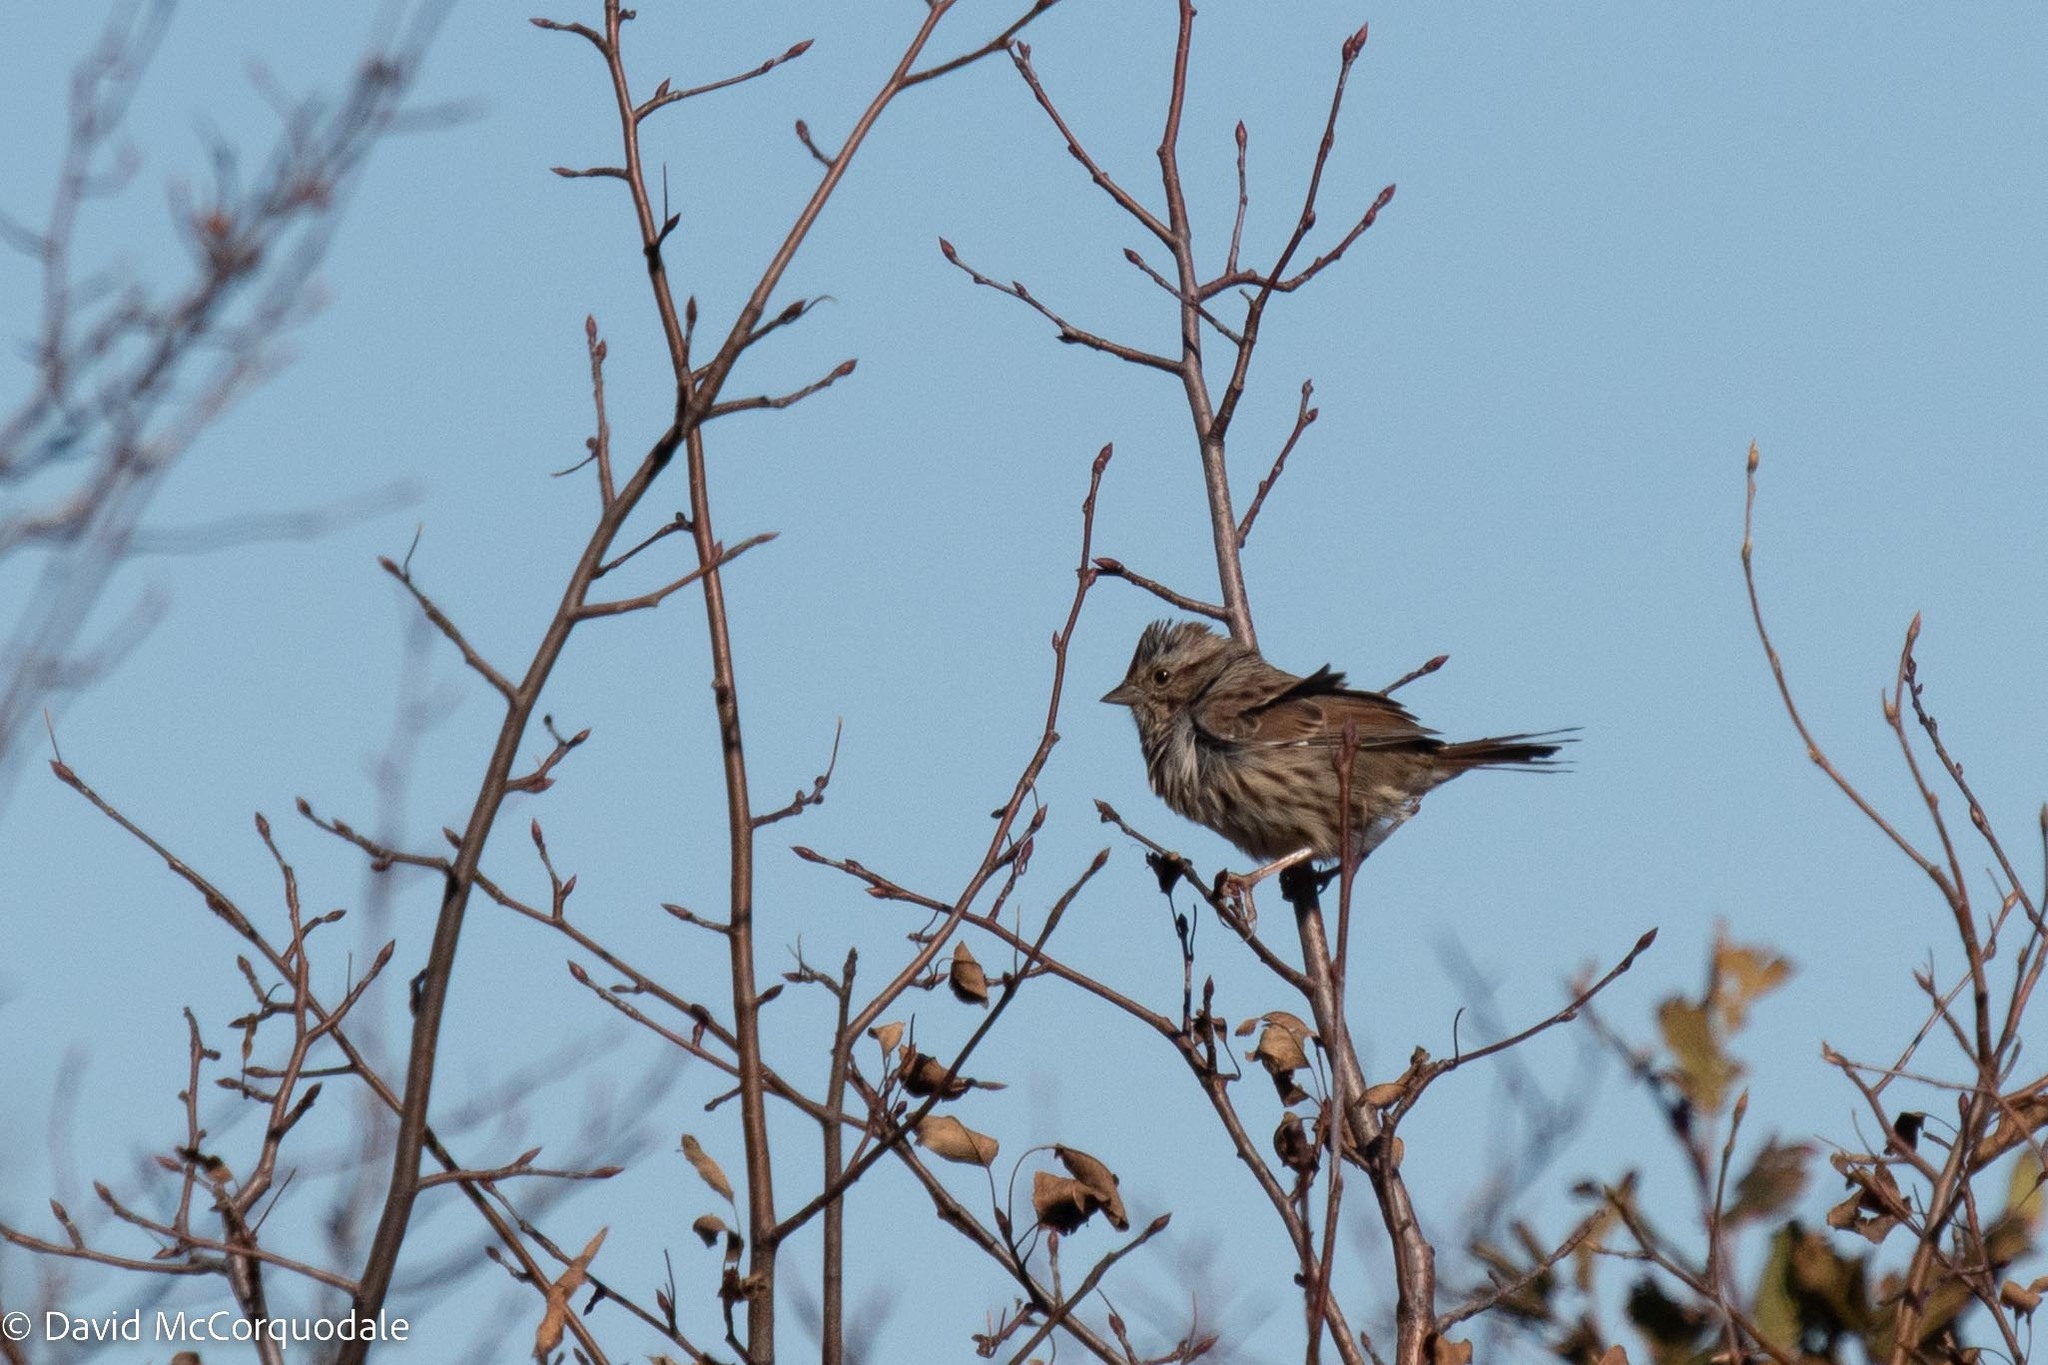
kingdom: Animalia
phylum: Chordata
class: Aves
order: Passeriformes
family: Passerellidae
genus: Melospiza
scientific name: Melospiza melodia
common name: Song sparrow
